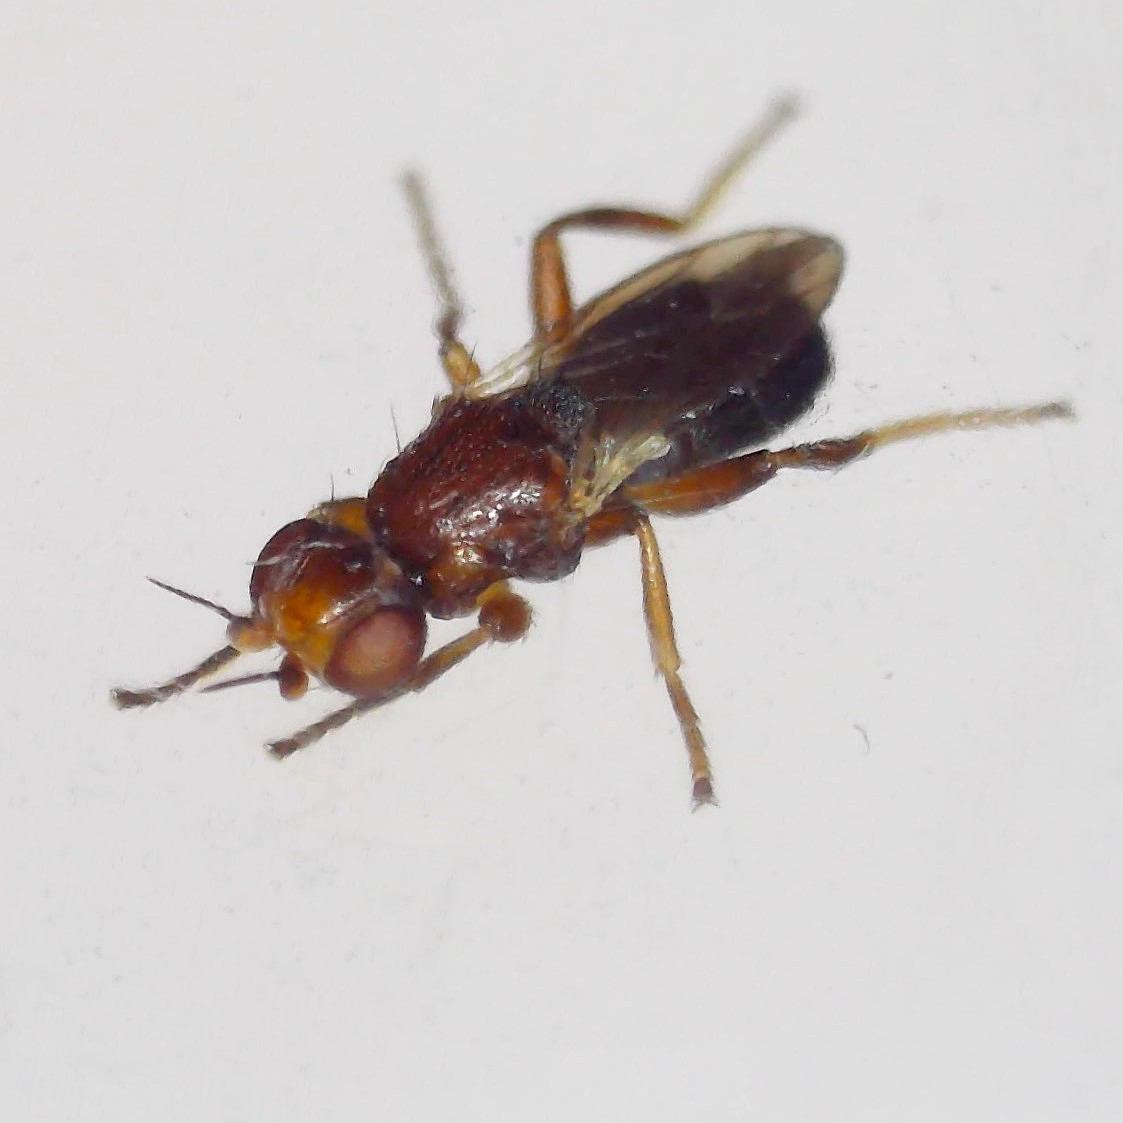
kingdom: Animalia
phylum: Arthropoda
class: Insecta
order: Diptera
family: Chloropidae
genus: Elachiptera
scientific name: Elachiptera brevipennis
